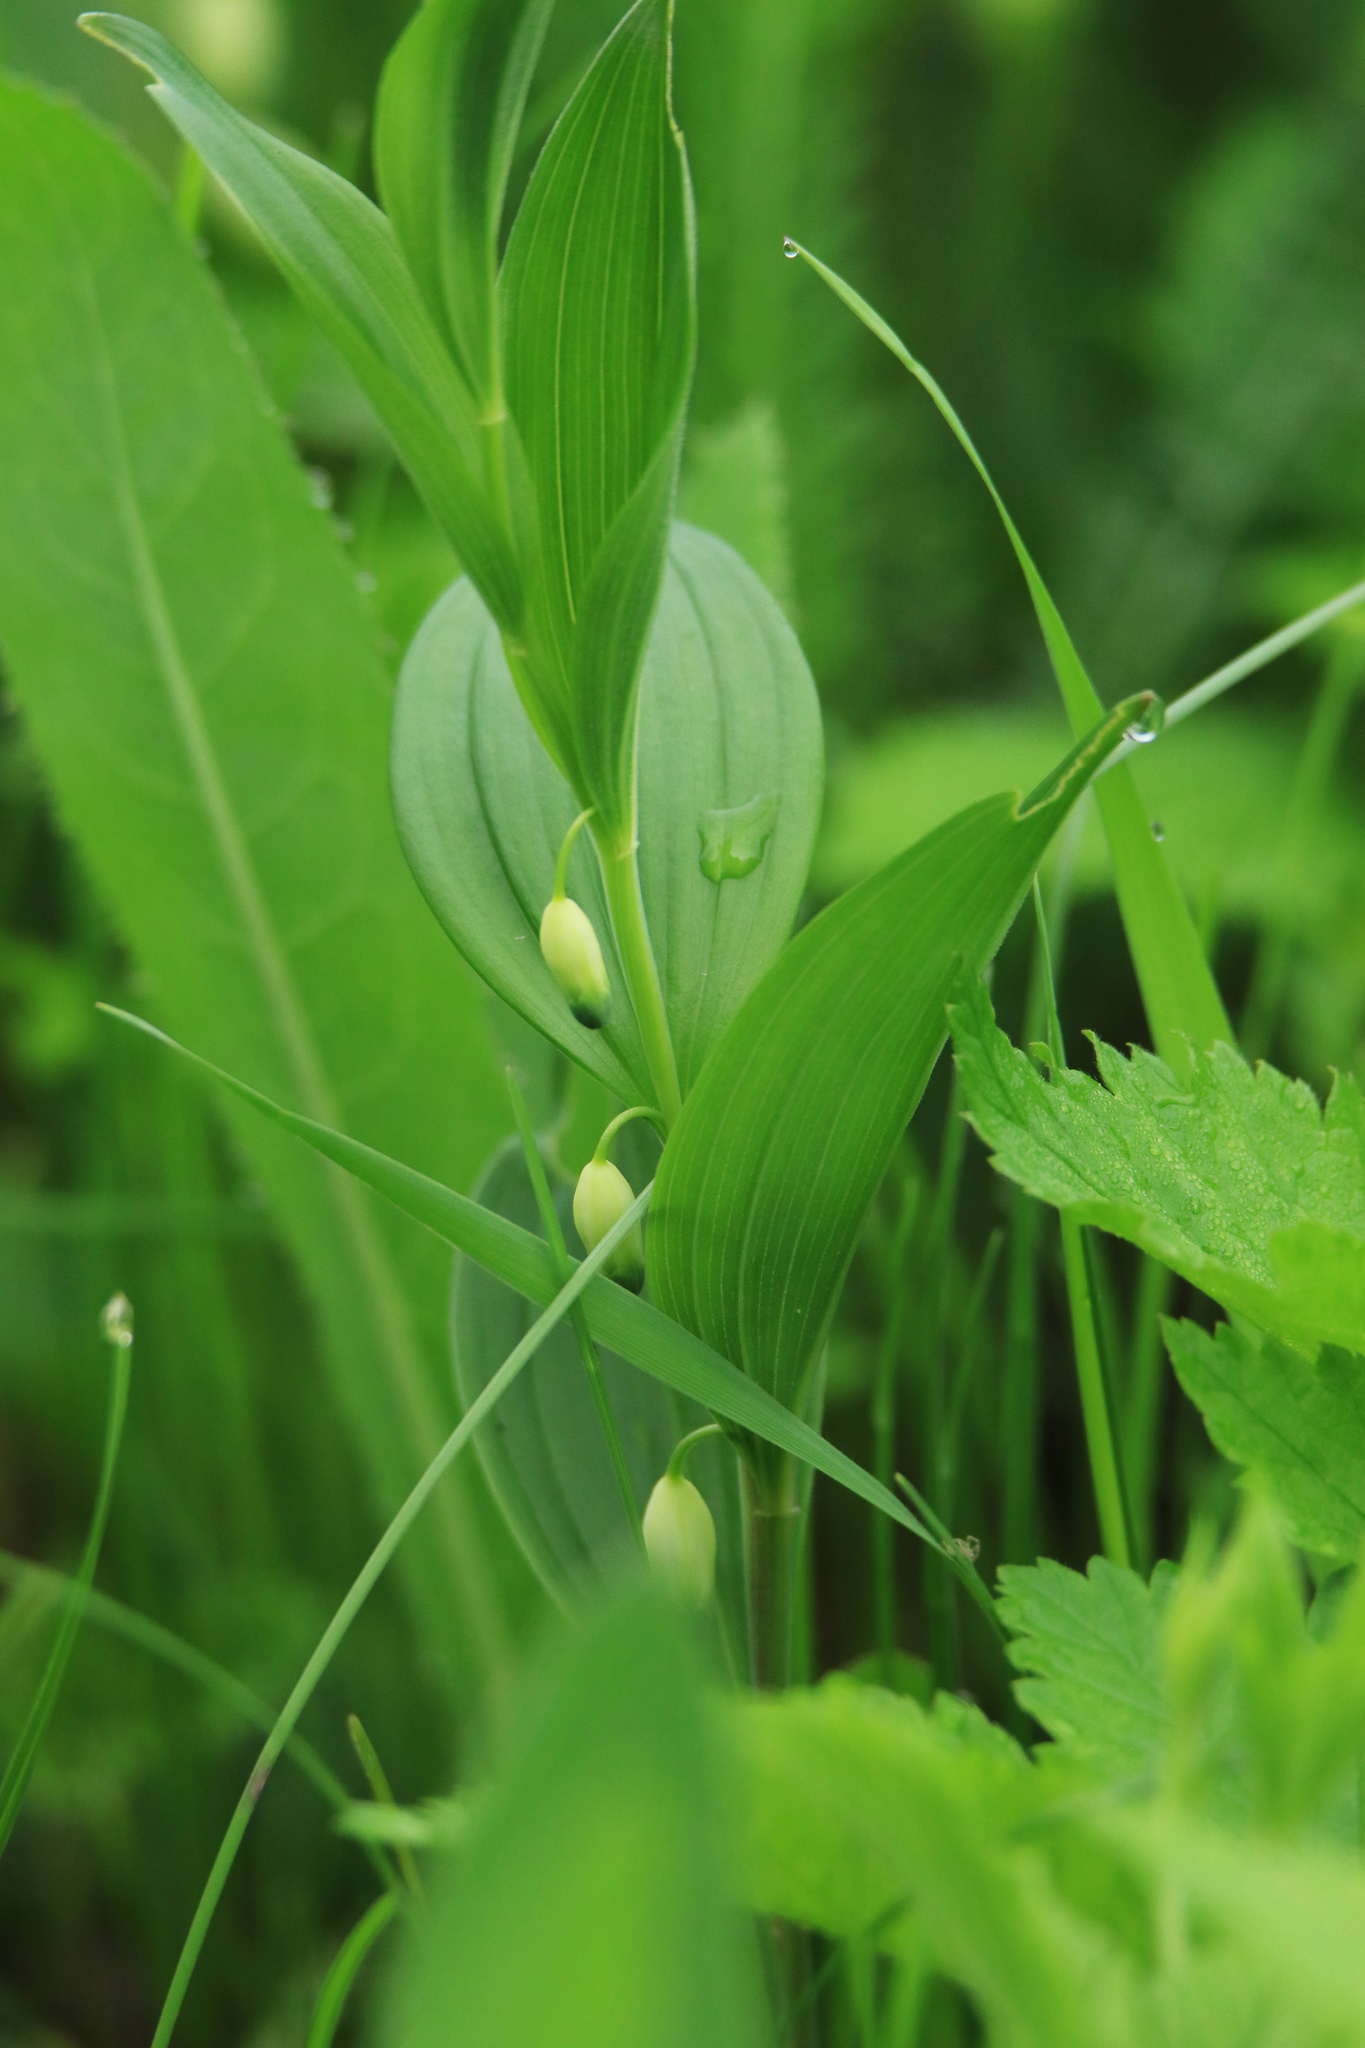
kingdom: Plantae
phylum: Tracheophyta
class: Liliopsida
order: Asparagales
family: Asparagaceae
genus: Polygonatum
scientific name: Polygonatum humile
